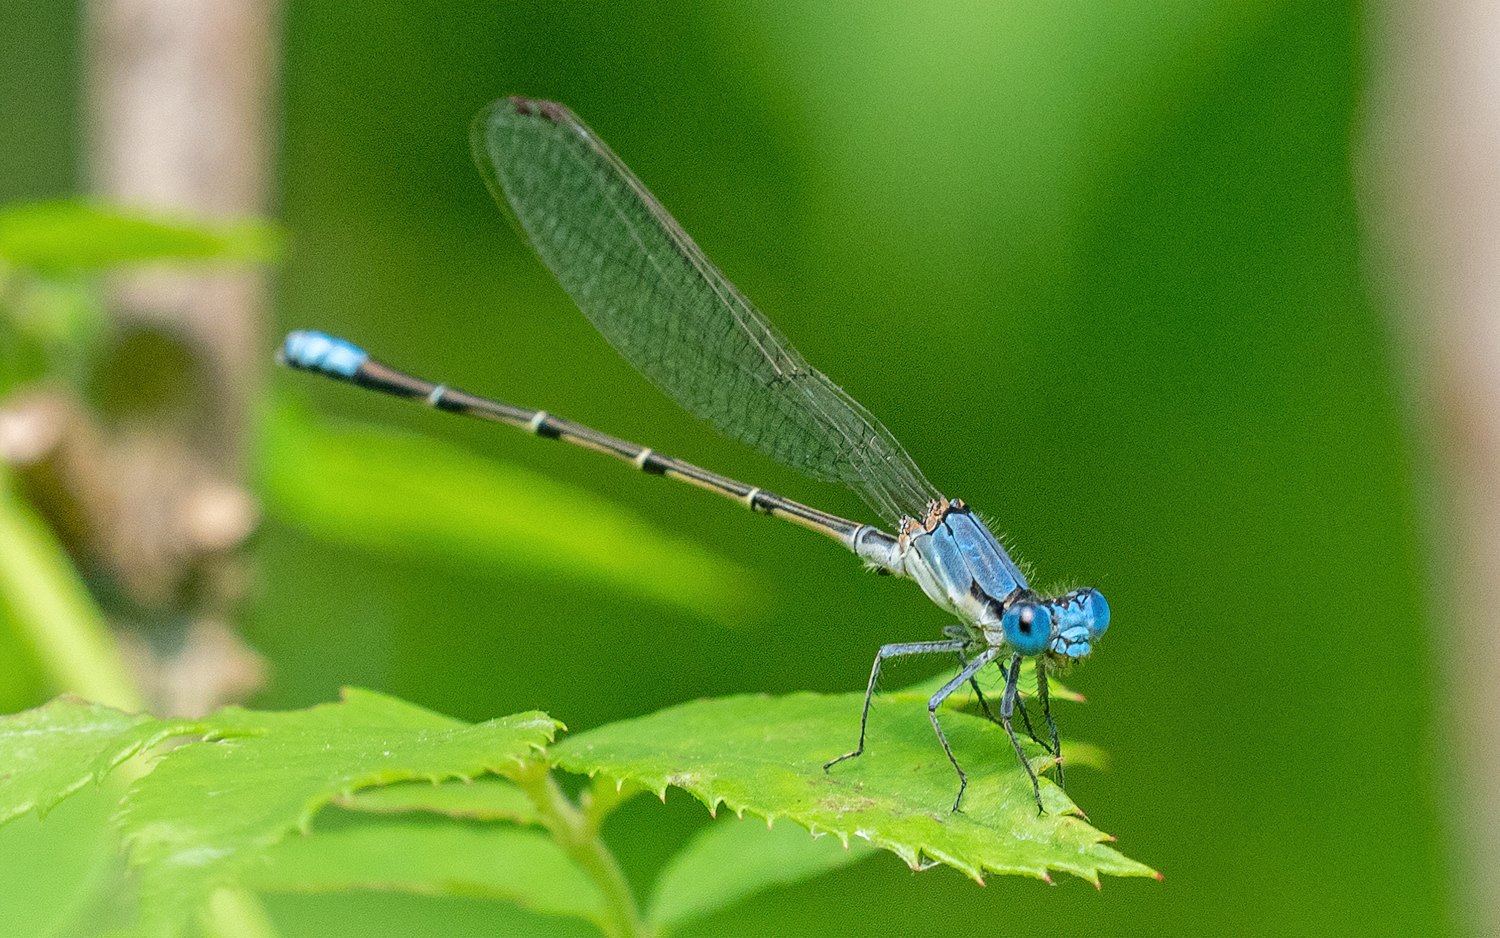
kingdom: Animalia
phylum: Arthropoda
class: Insecta
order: Odonata
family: Coenagrionidae
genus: Argia
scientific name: Argia apicalis
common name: Blue-fronted dancer
